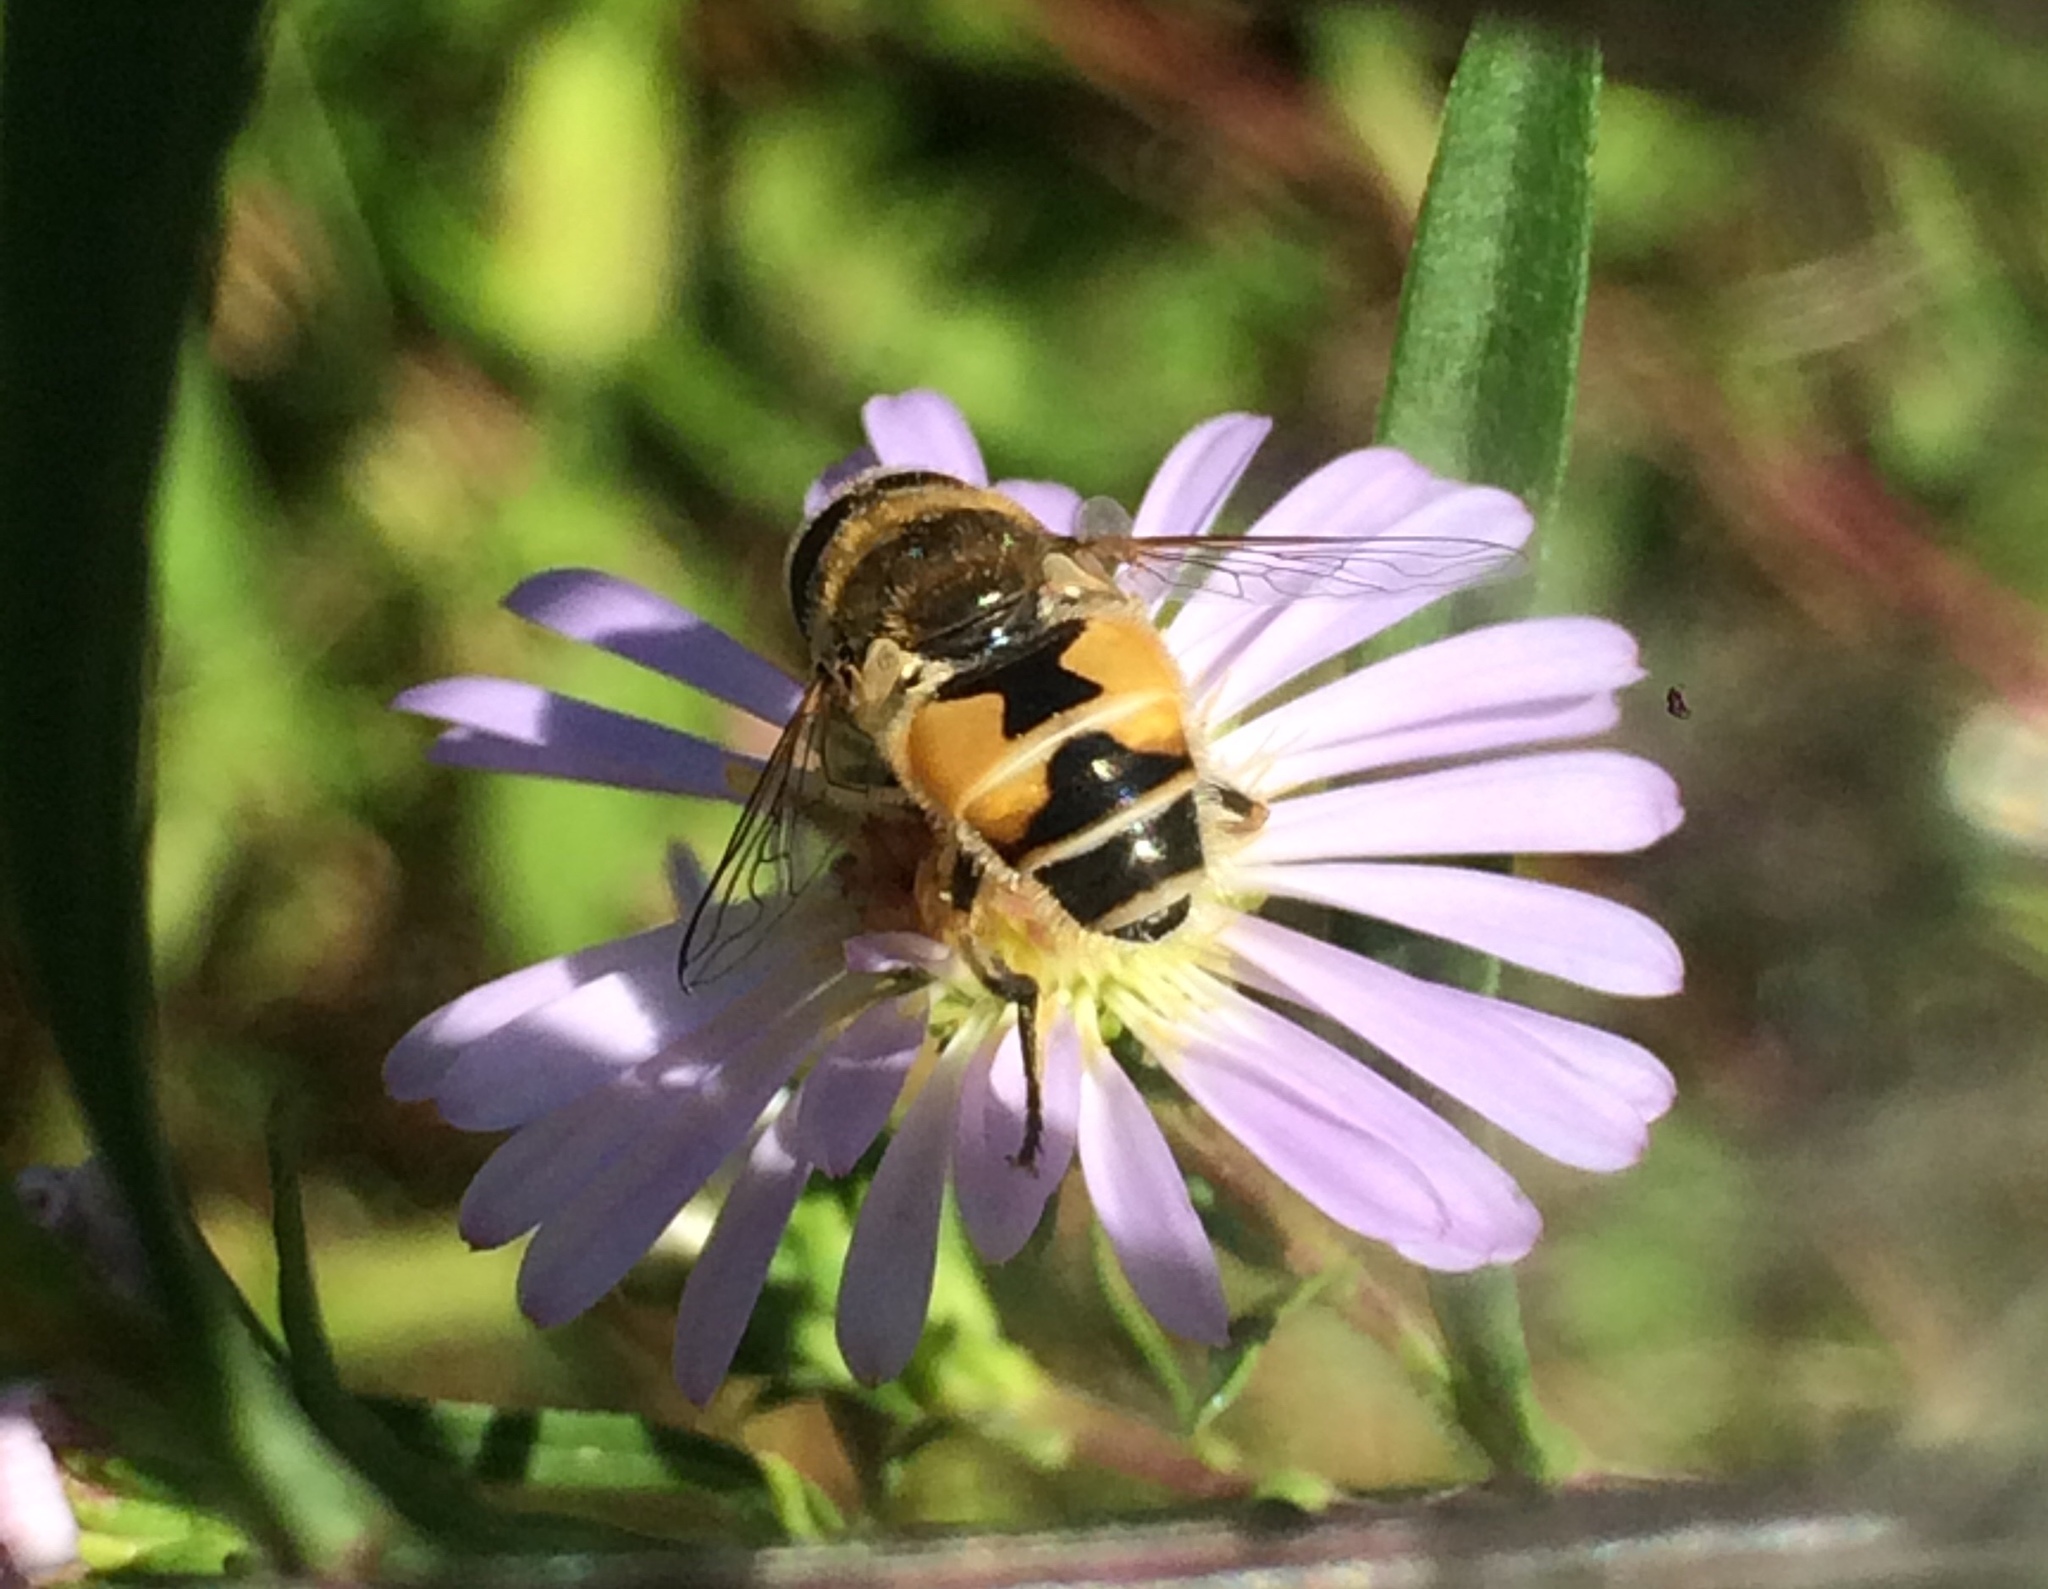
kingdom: Animalia
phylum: Arthropoda
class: Insecta
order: Diptera
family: Syrphidae
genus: Eristalis
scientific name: Eristalis
